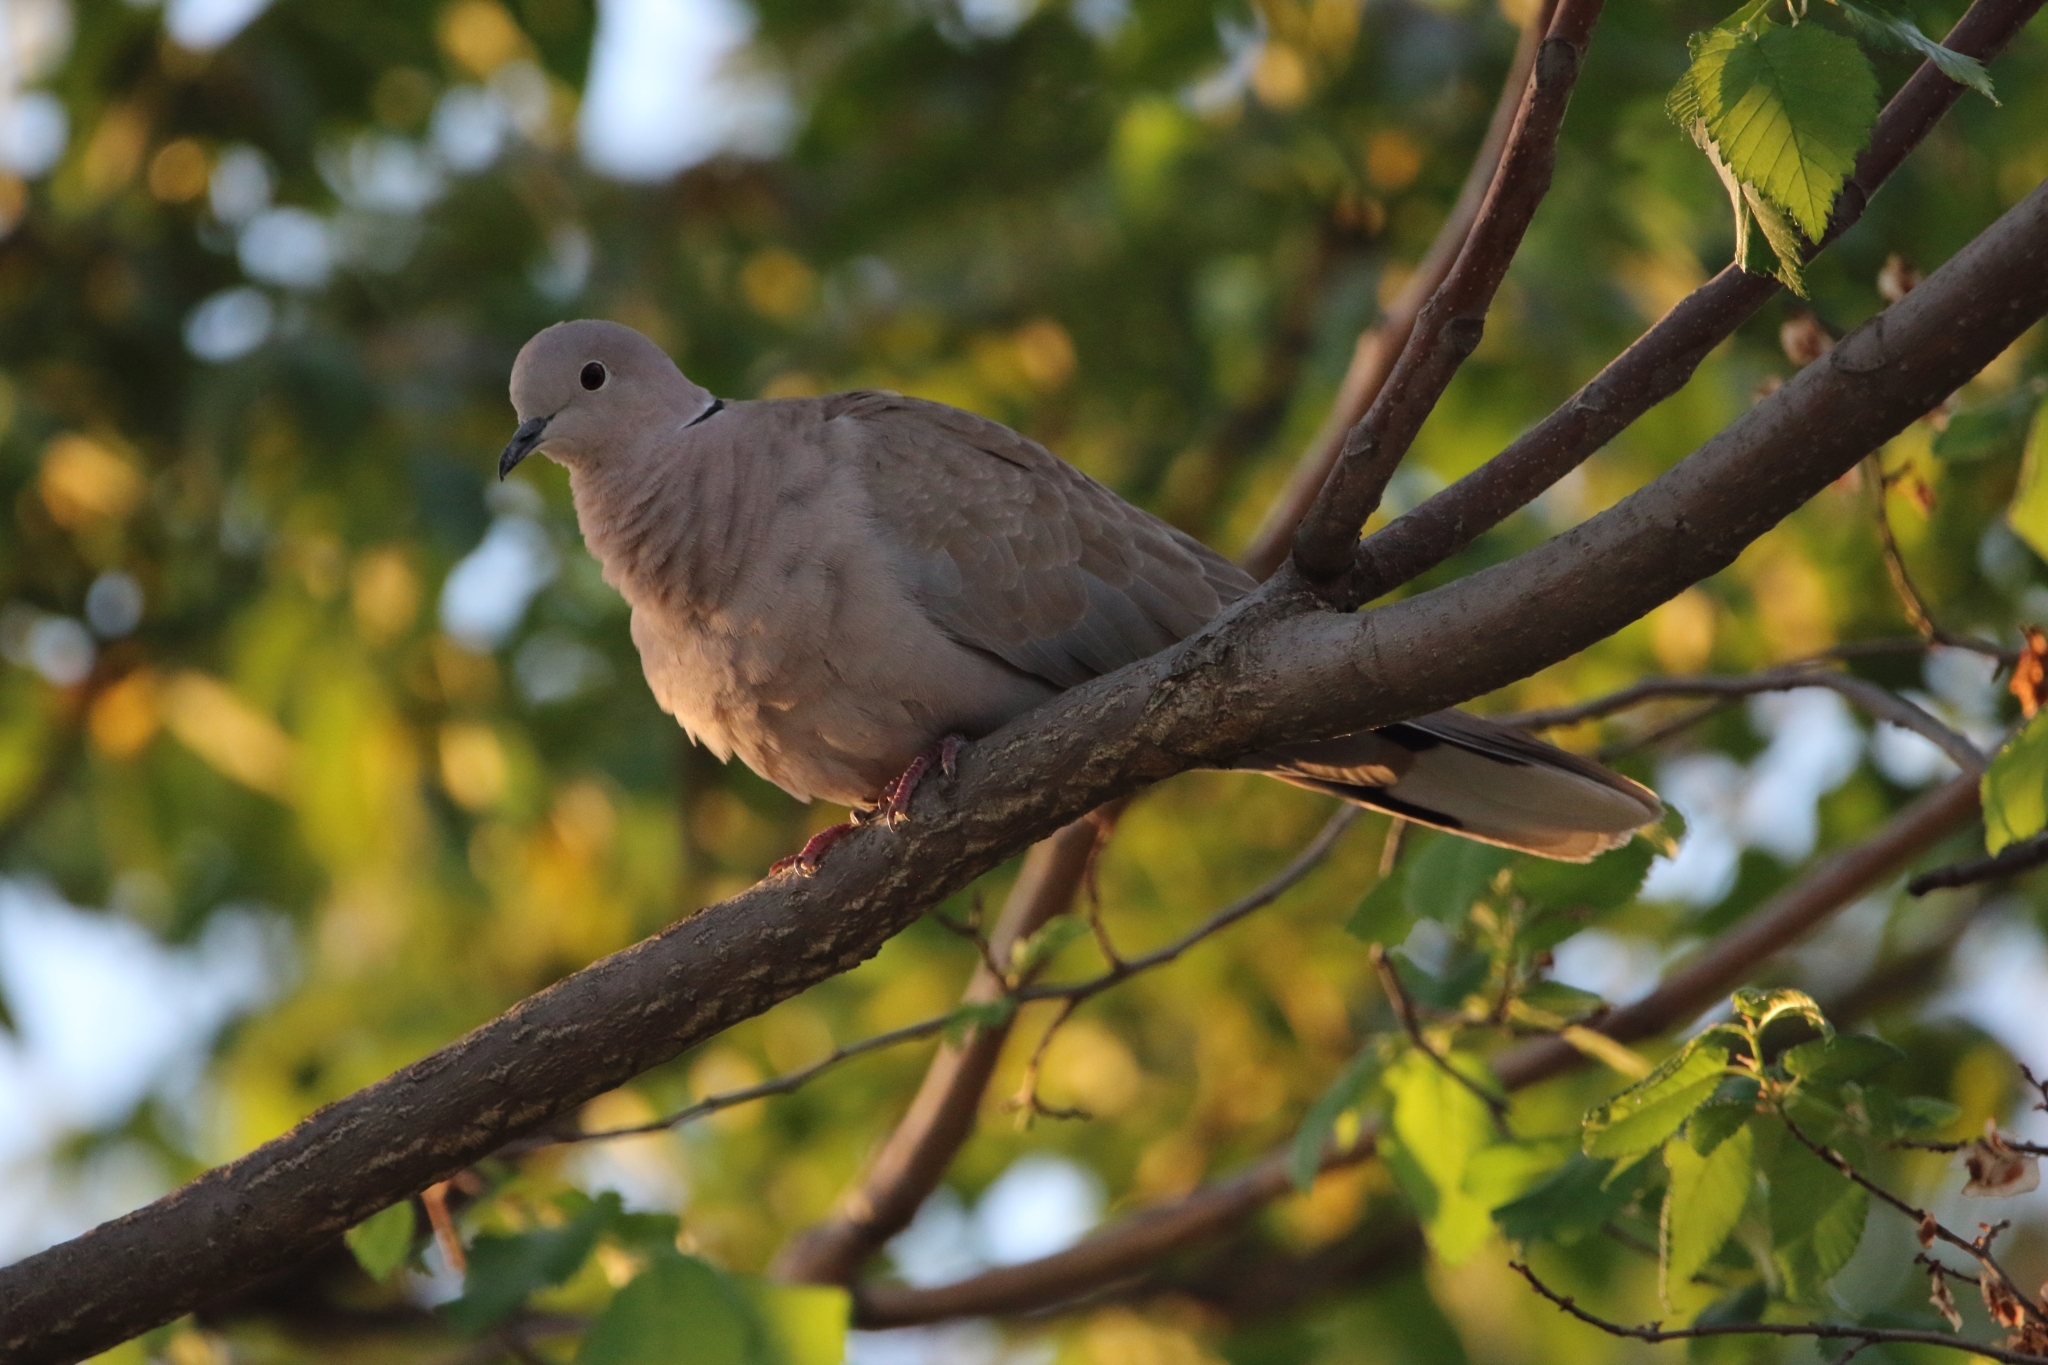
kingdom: Animalia
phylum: Chordata
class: Aves
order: Columbiformes
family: Columbidae
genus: Streptopelia
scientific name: Streptopelia decaocto
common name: Eurasian collared dove
